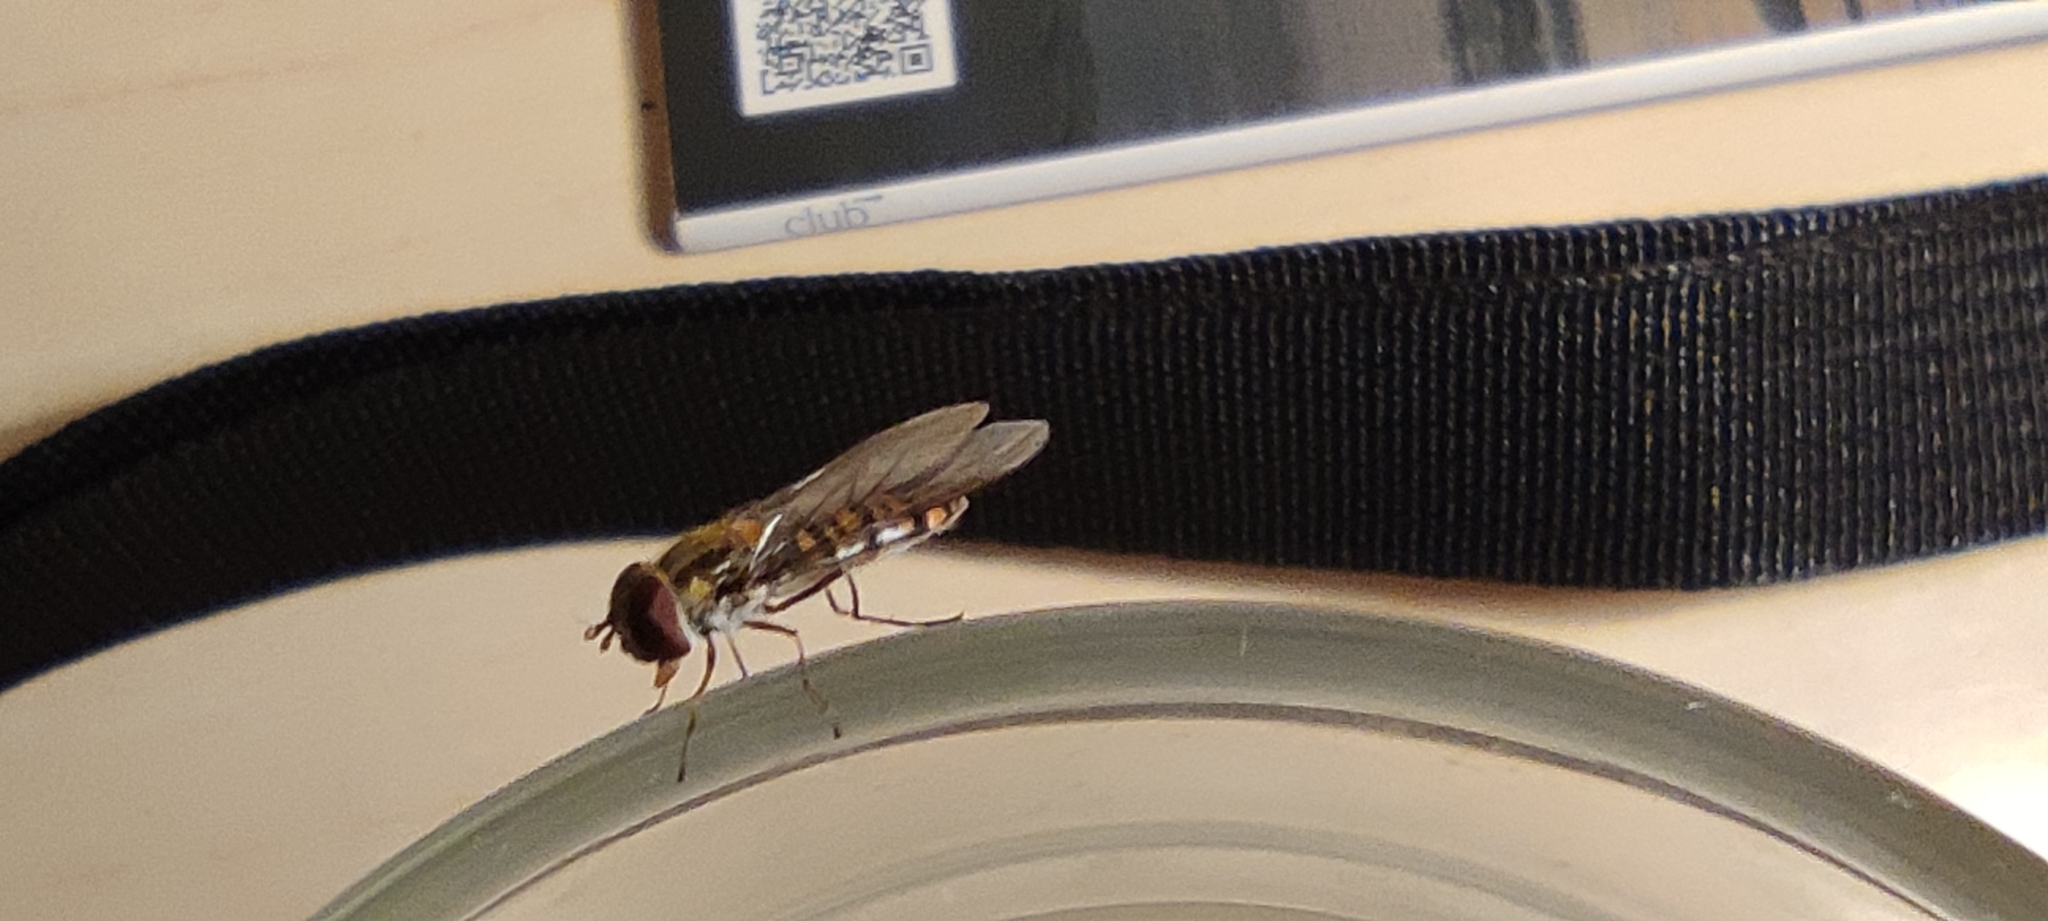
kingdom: Animalia
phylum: Arthropoda
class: Insecta
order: Diptera
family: Syrphidae
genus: Episyrphus
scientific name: Episyrphus balteatus
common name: Marmalade hoverfly
